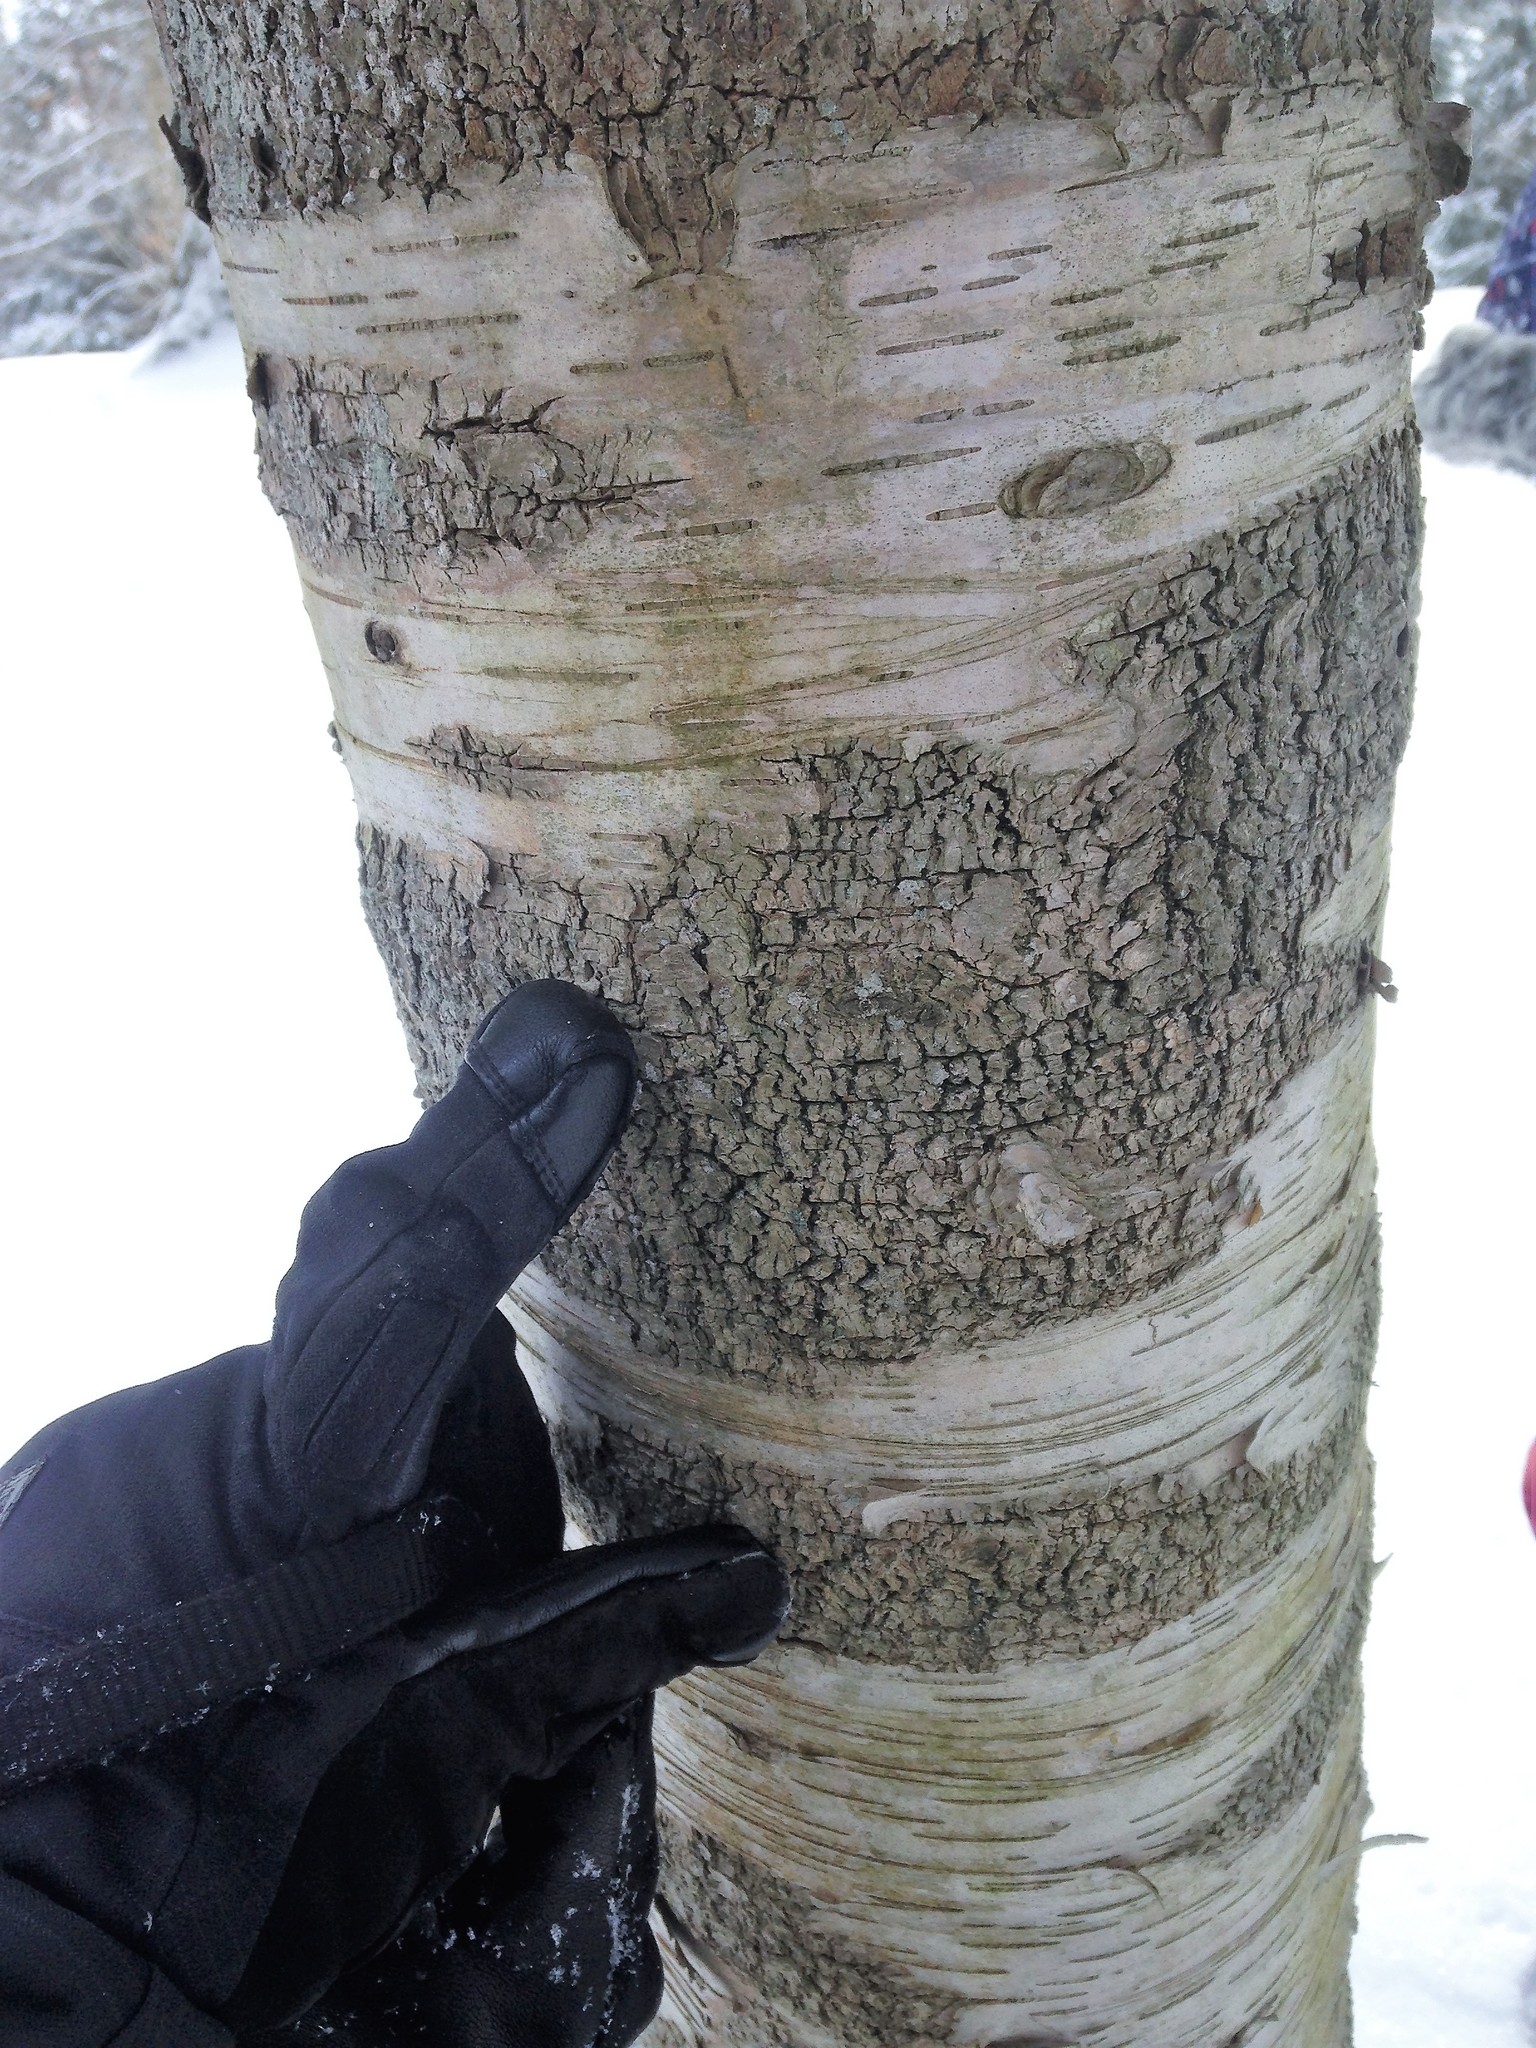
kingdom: Plantae
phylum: Tracheophyta
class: Magnoliopsida
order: Fagales
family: Betulaceae
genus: Betula
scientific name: Betula papyrifera
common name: Paper birch
